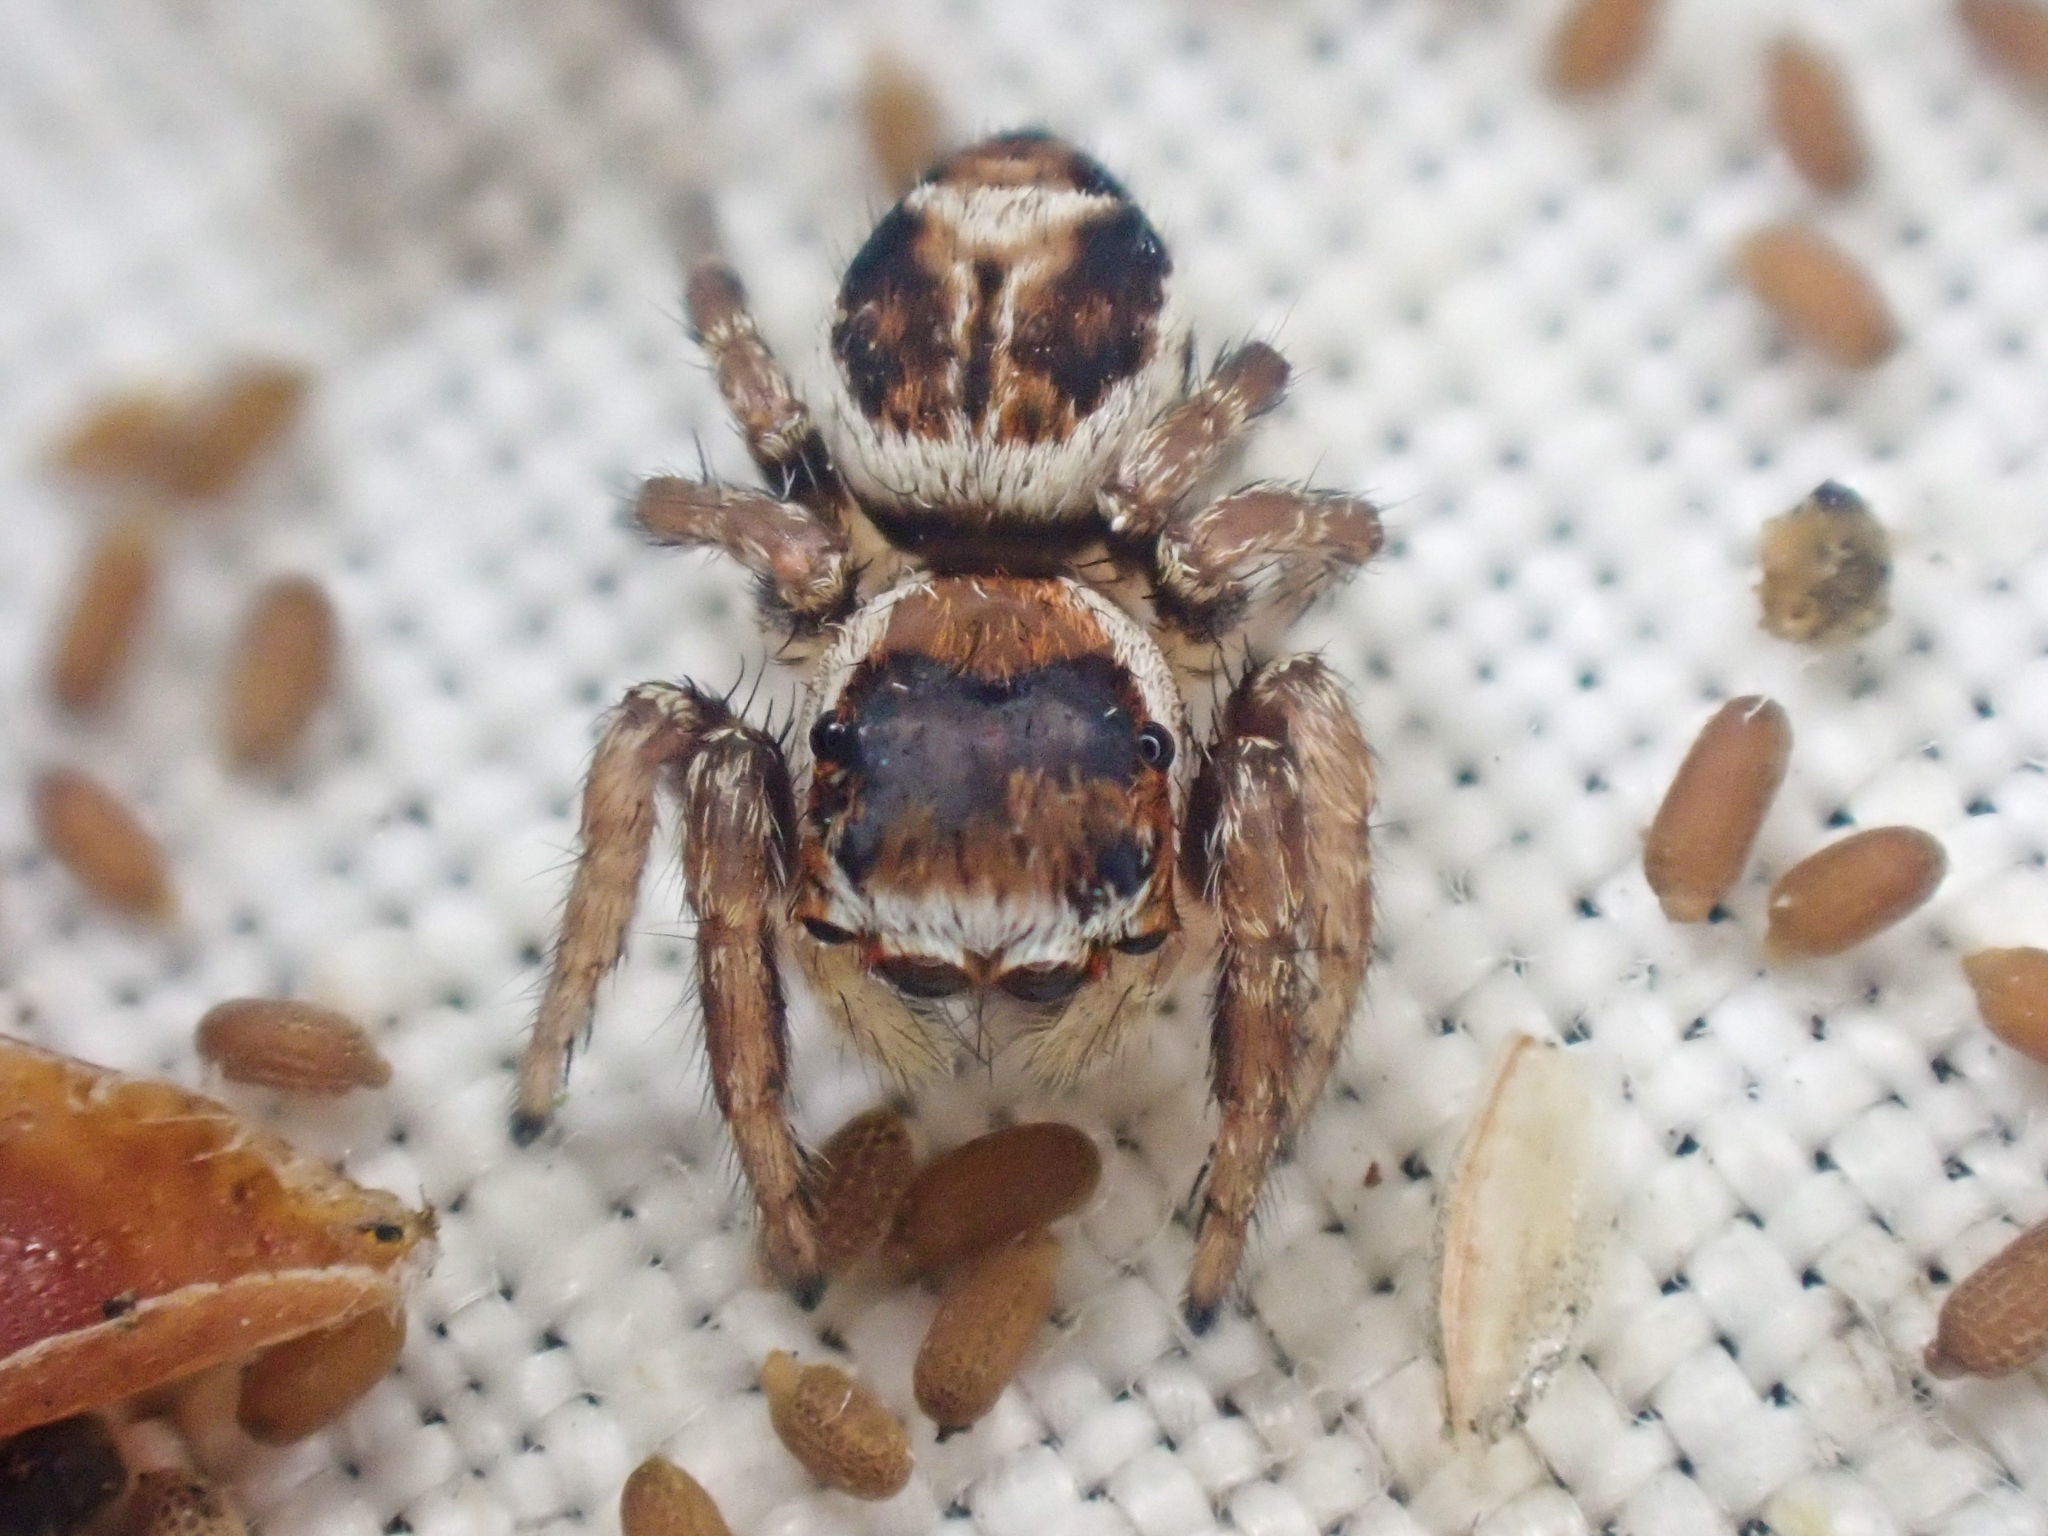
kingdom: Animalia
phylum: Arthropoda
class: Arachnida
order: Araneae
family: Salticidae
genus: Evarcha
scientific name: Evarcha proszynskii
